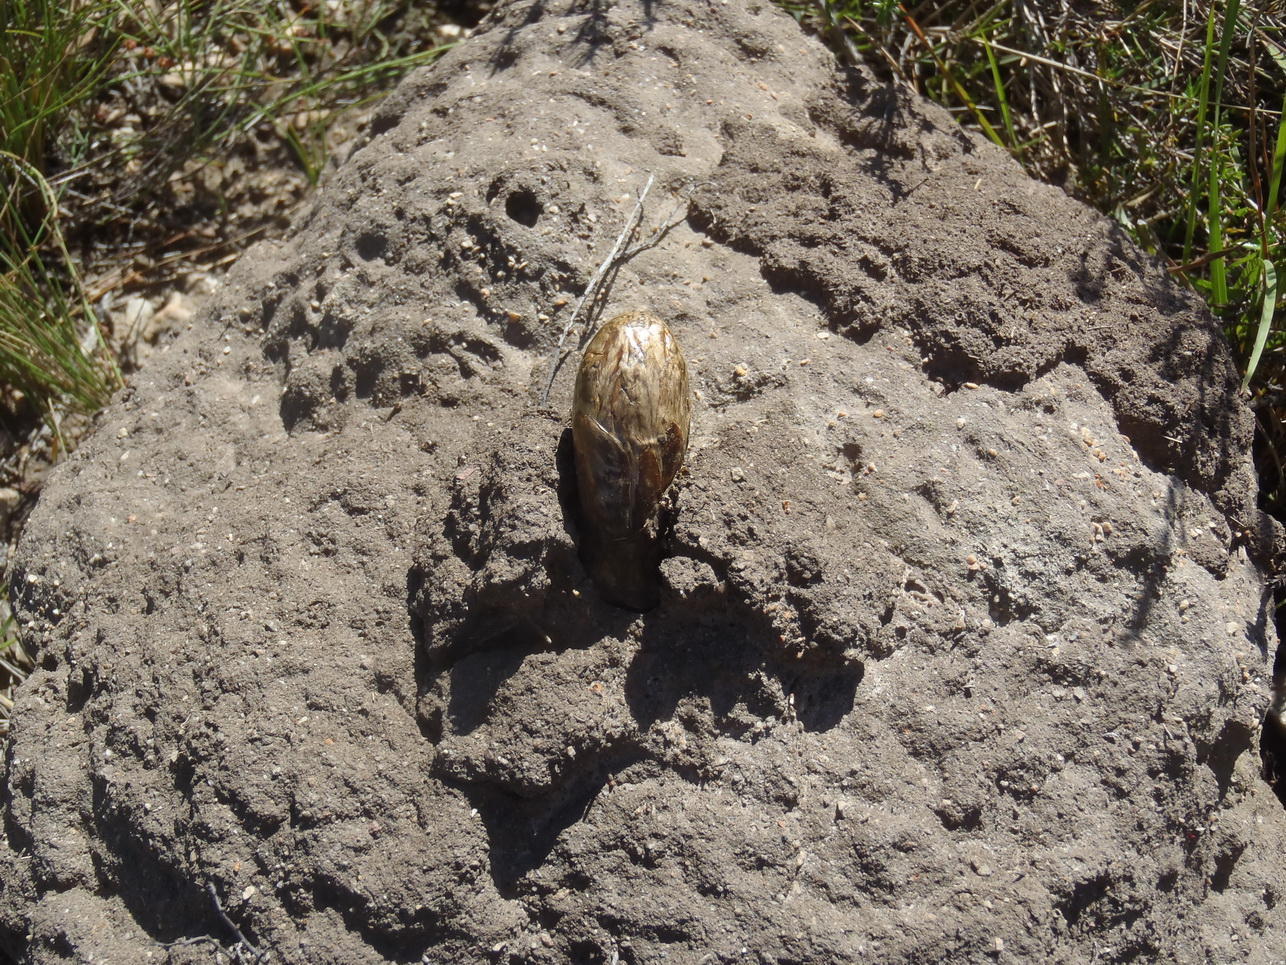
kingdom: Fungi
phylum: Basidiomycota
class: Agaricomycetes
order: Agaricales
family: Agaricaceae
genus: Podaxis
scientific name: Podaxis pistillaris
